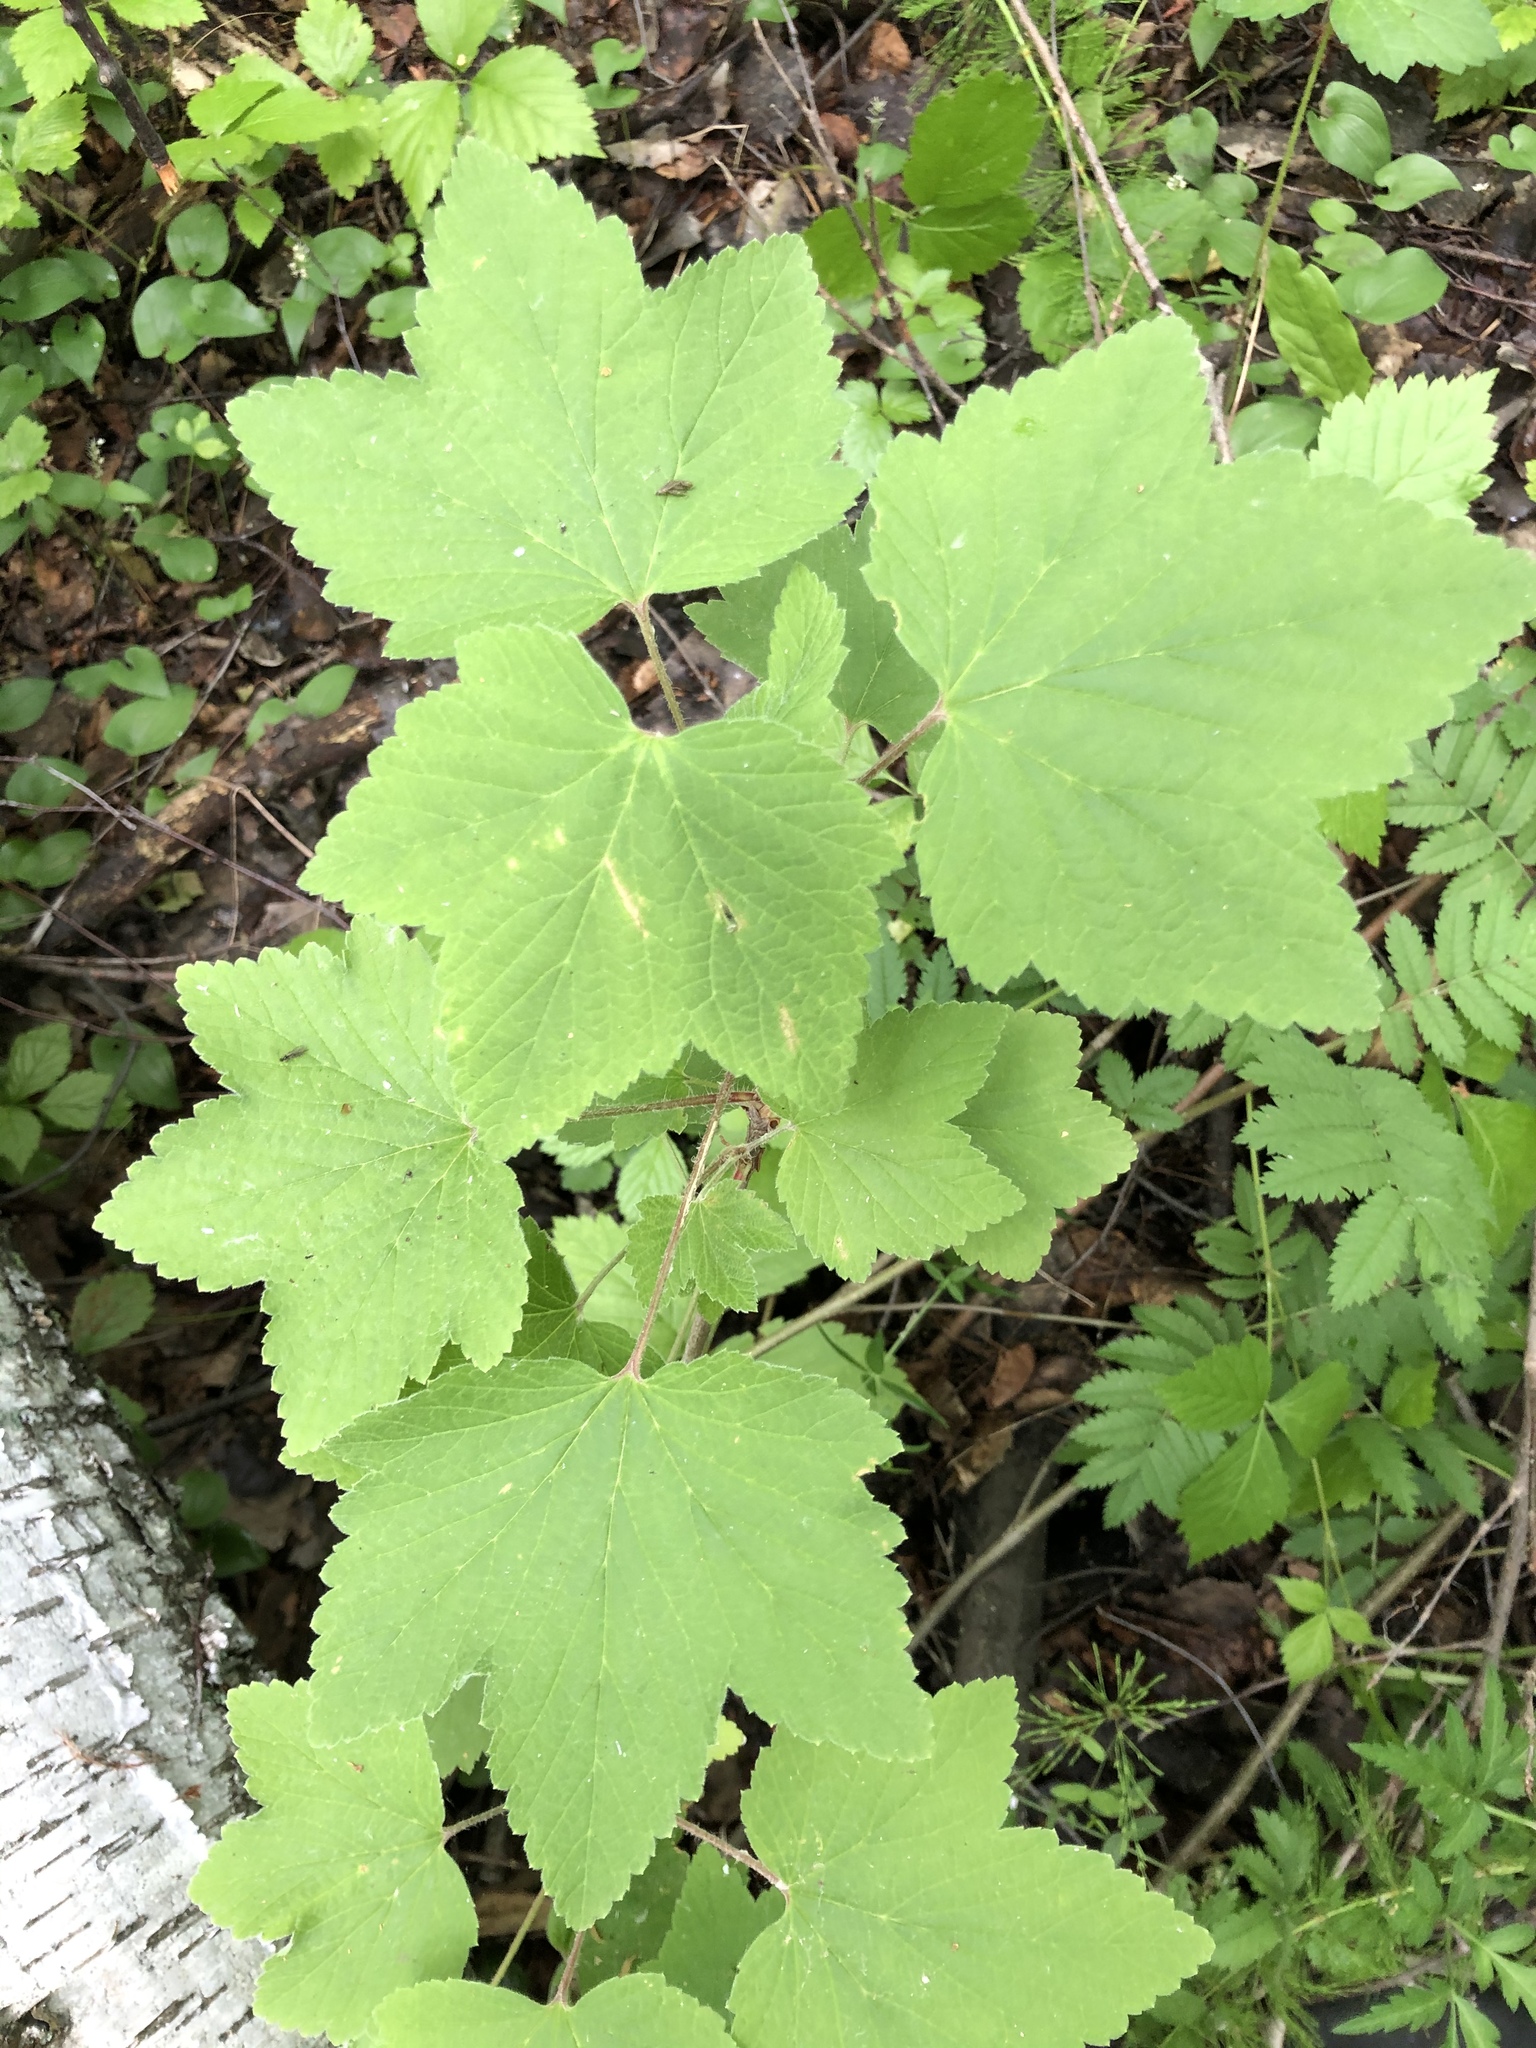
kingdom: Plantae
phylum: Tracheophyta
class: Magnoliopsida
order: Saxifragales
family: Grossulariaceae
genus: Ribes
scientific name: Ribes rubrum
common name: Red currant
